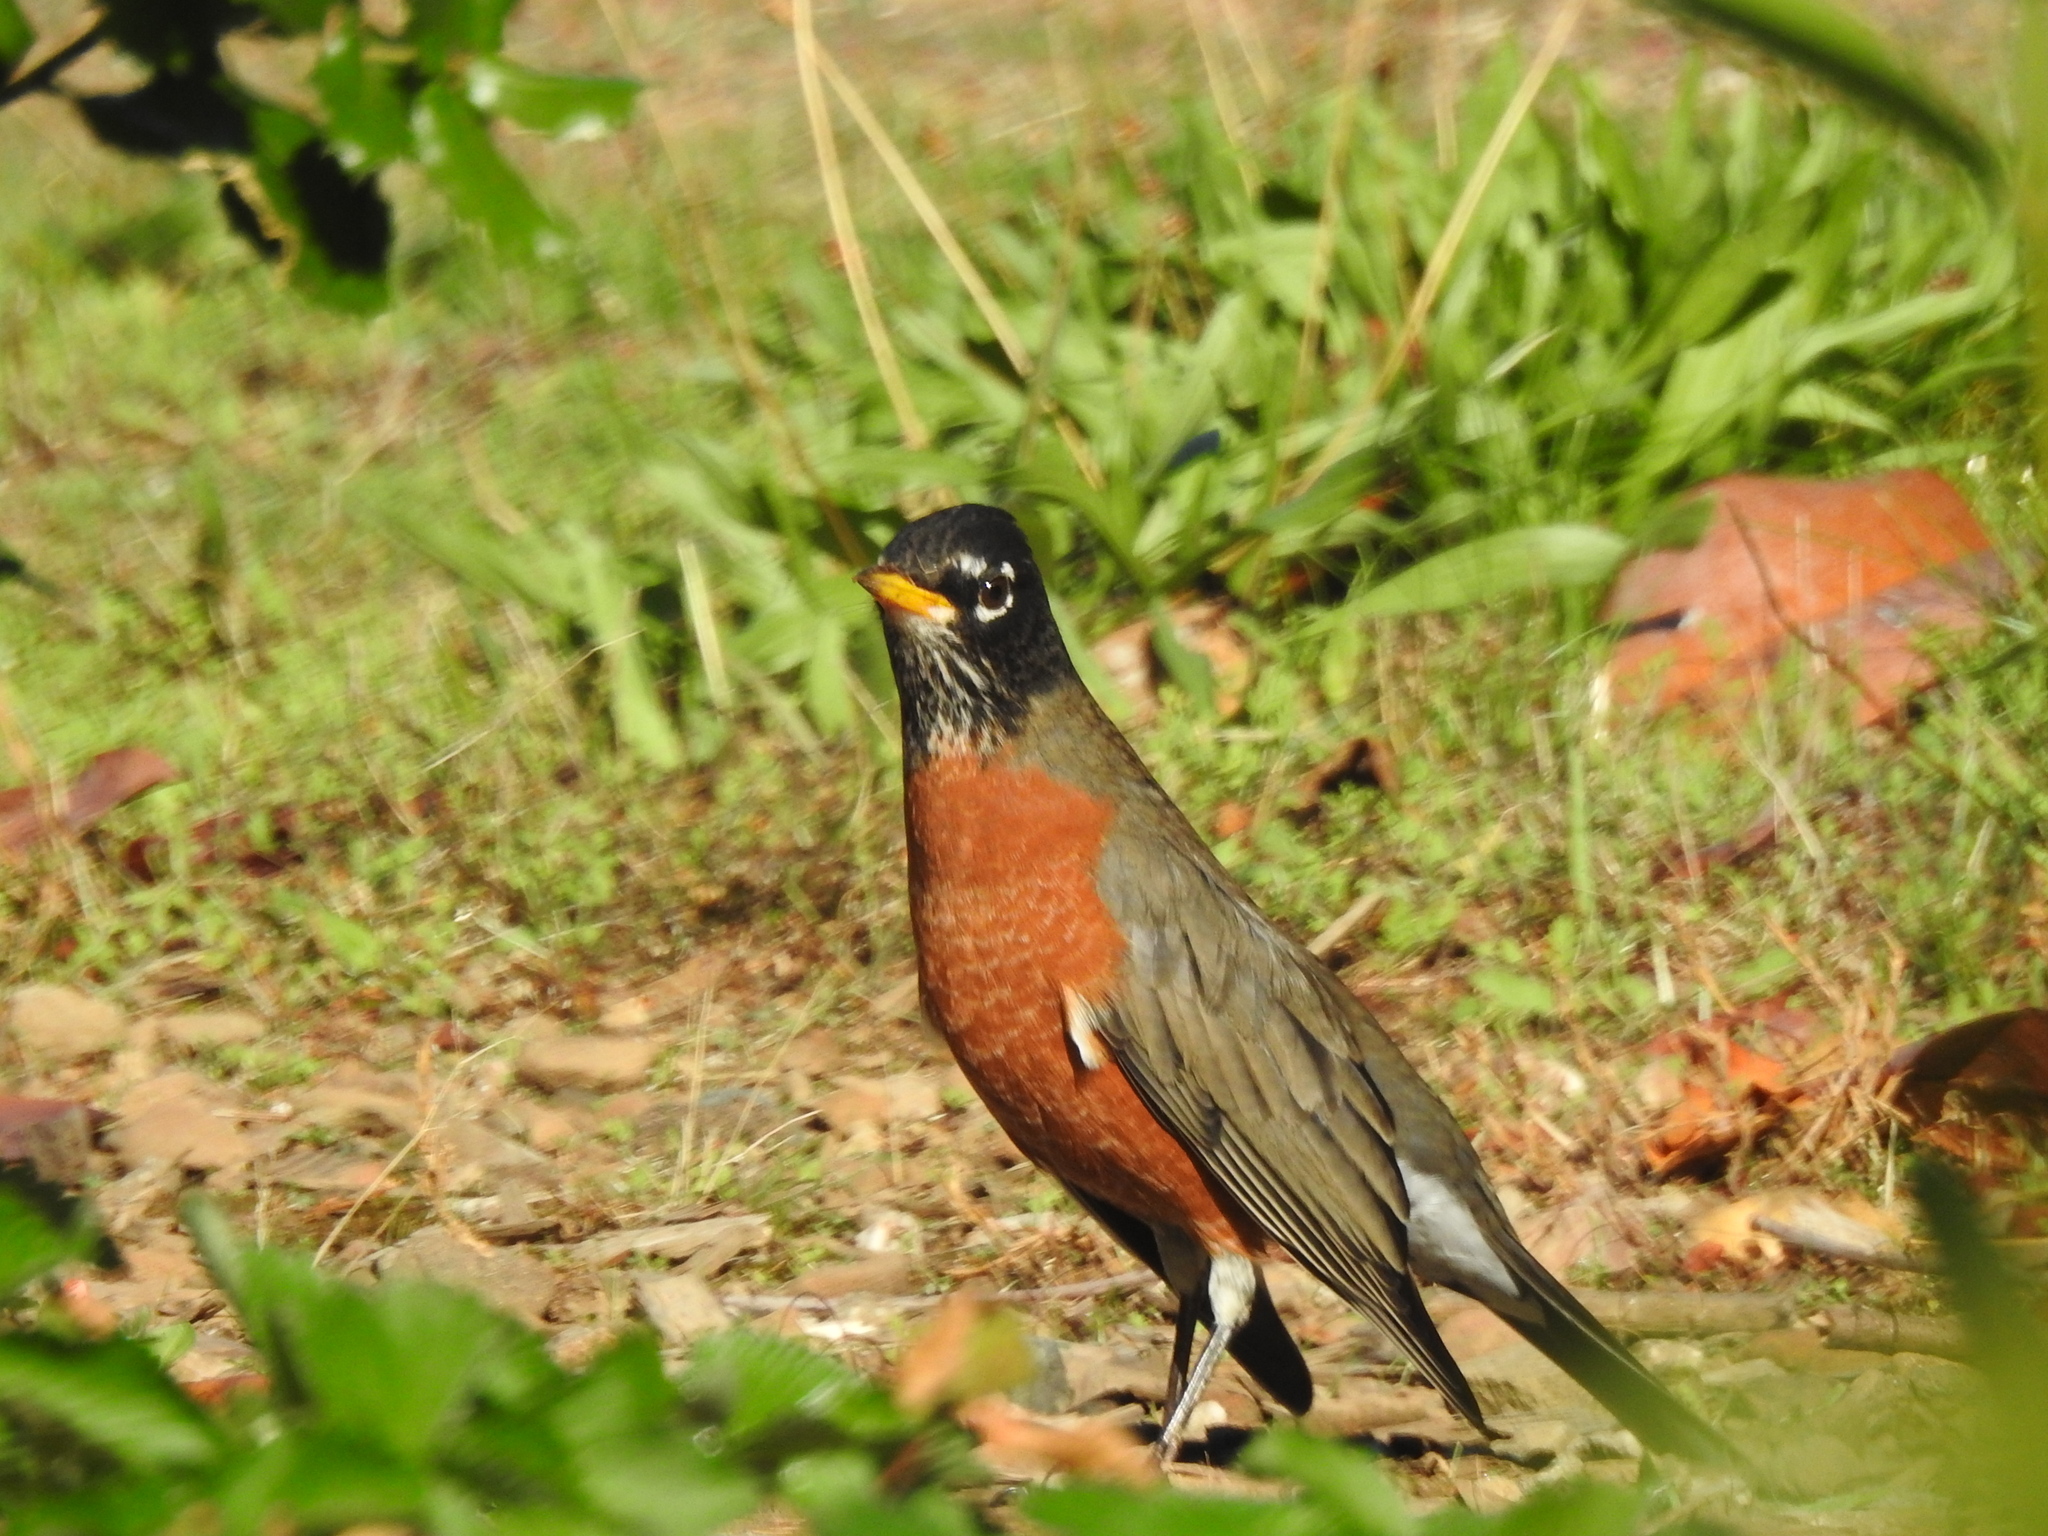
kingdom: Animalia
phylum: Chordata
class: Aves
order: Passeriformes
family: Turdidae
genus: Turdus
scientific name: Turdus migratorius
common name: American robin
